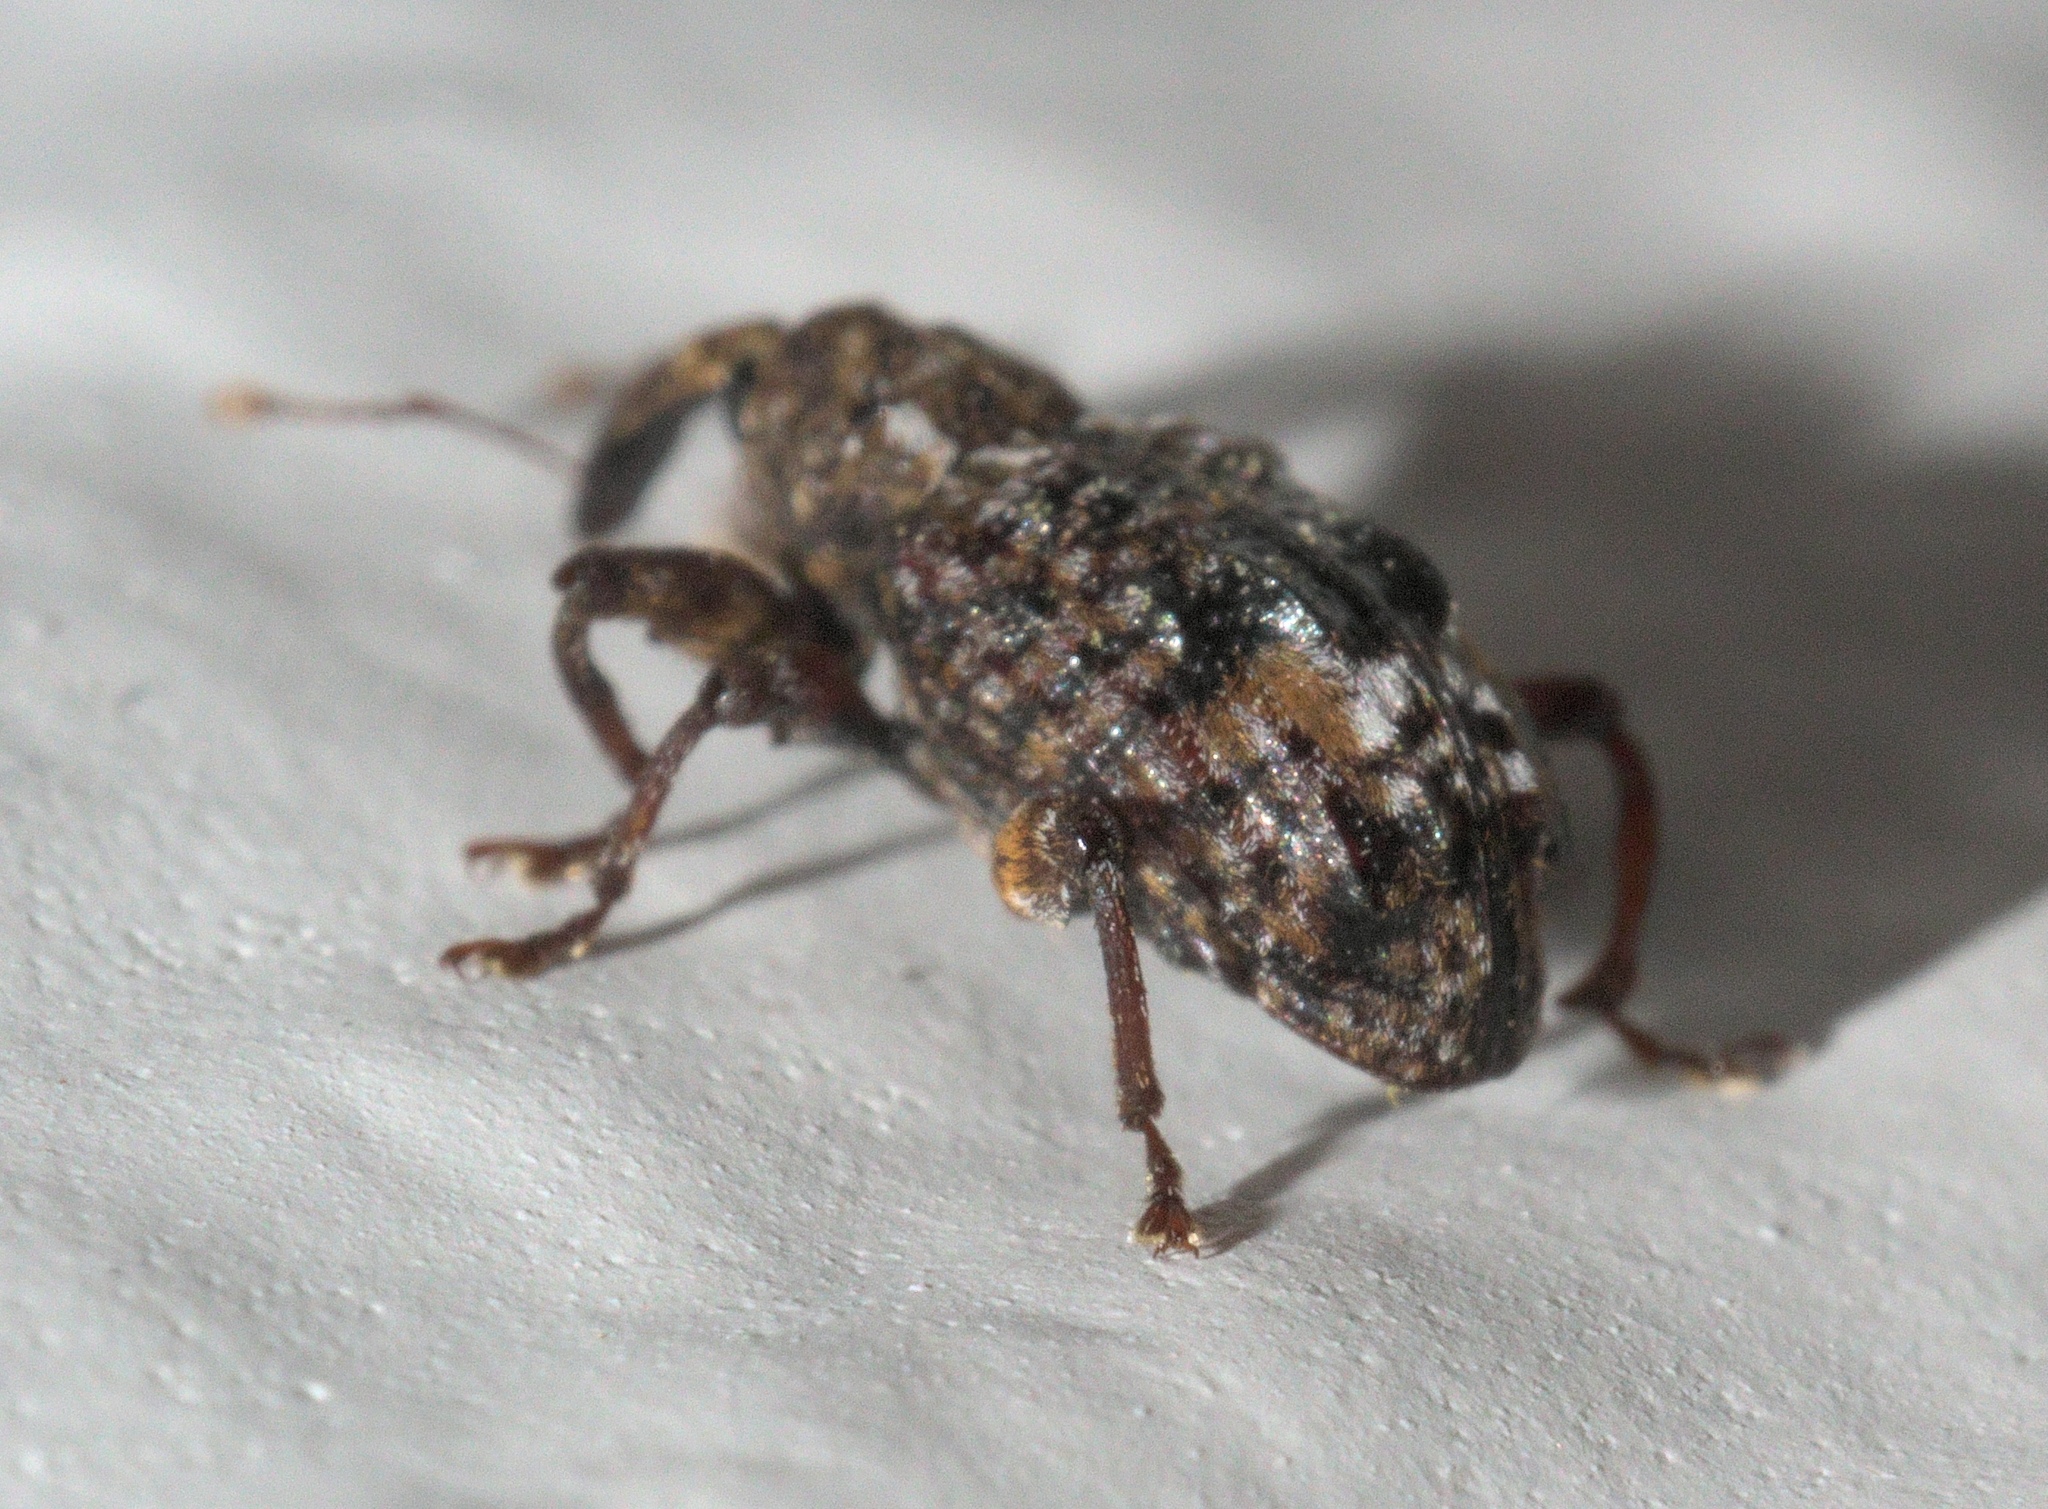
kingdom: Animalia
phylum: Arthropoda
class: Insecta
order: Coleoptera
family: Curculionidae
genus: Conotrachelus
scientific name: Conotrachelus nenuphar
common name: Plum curculio
